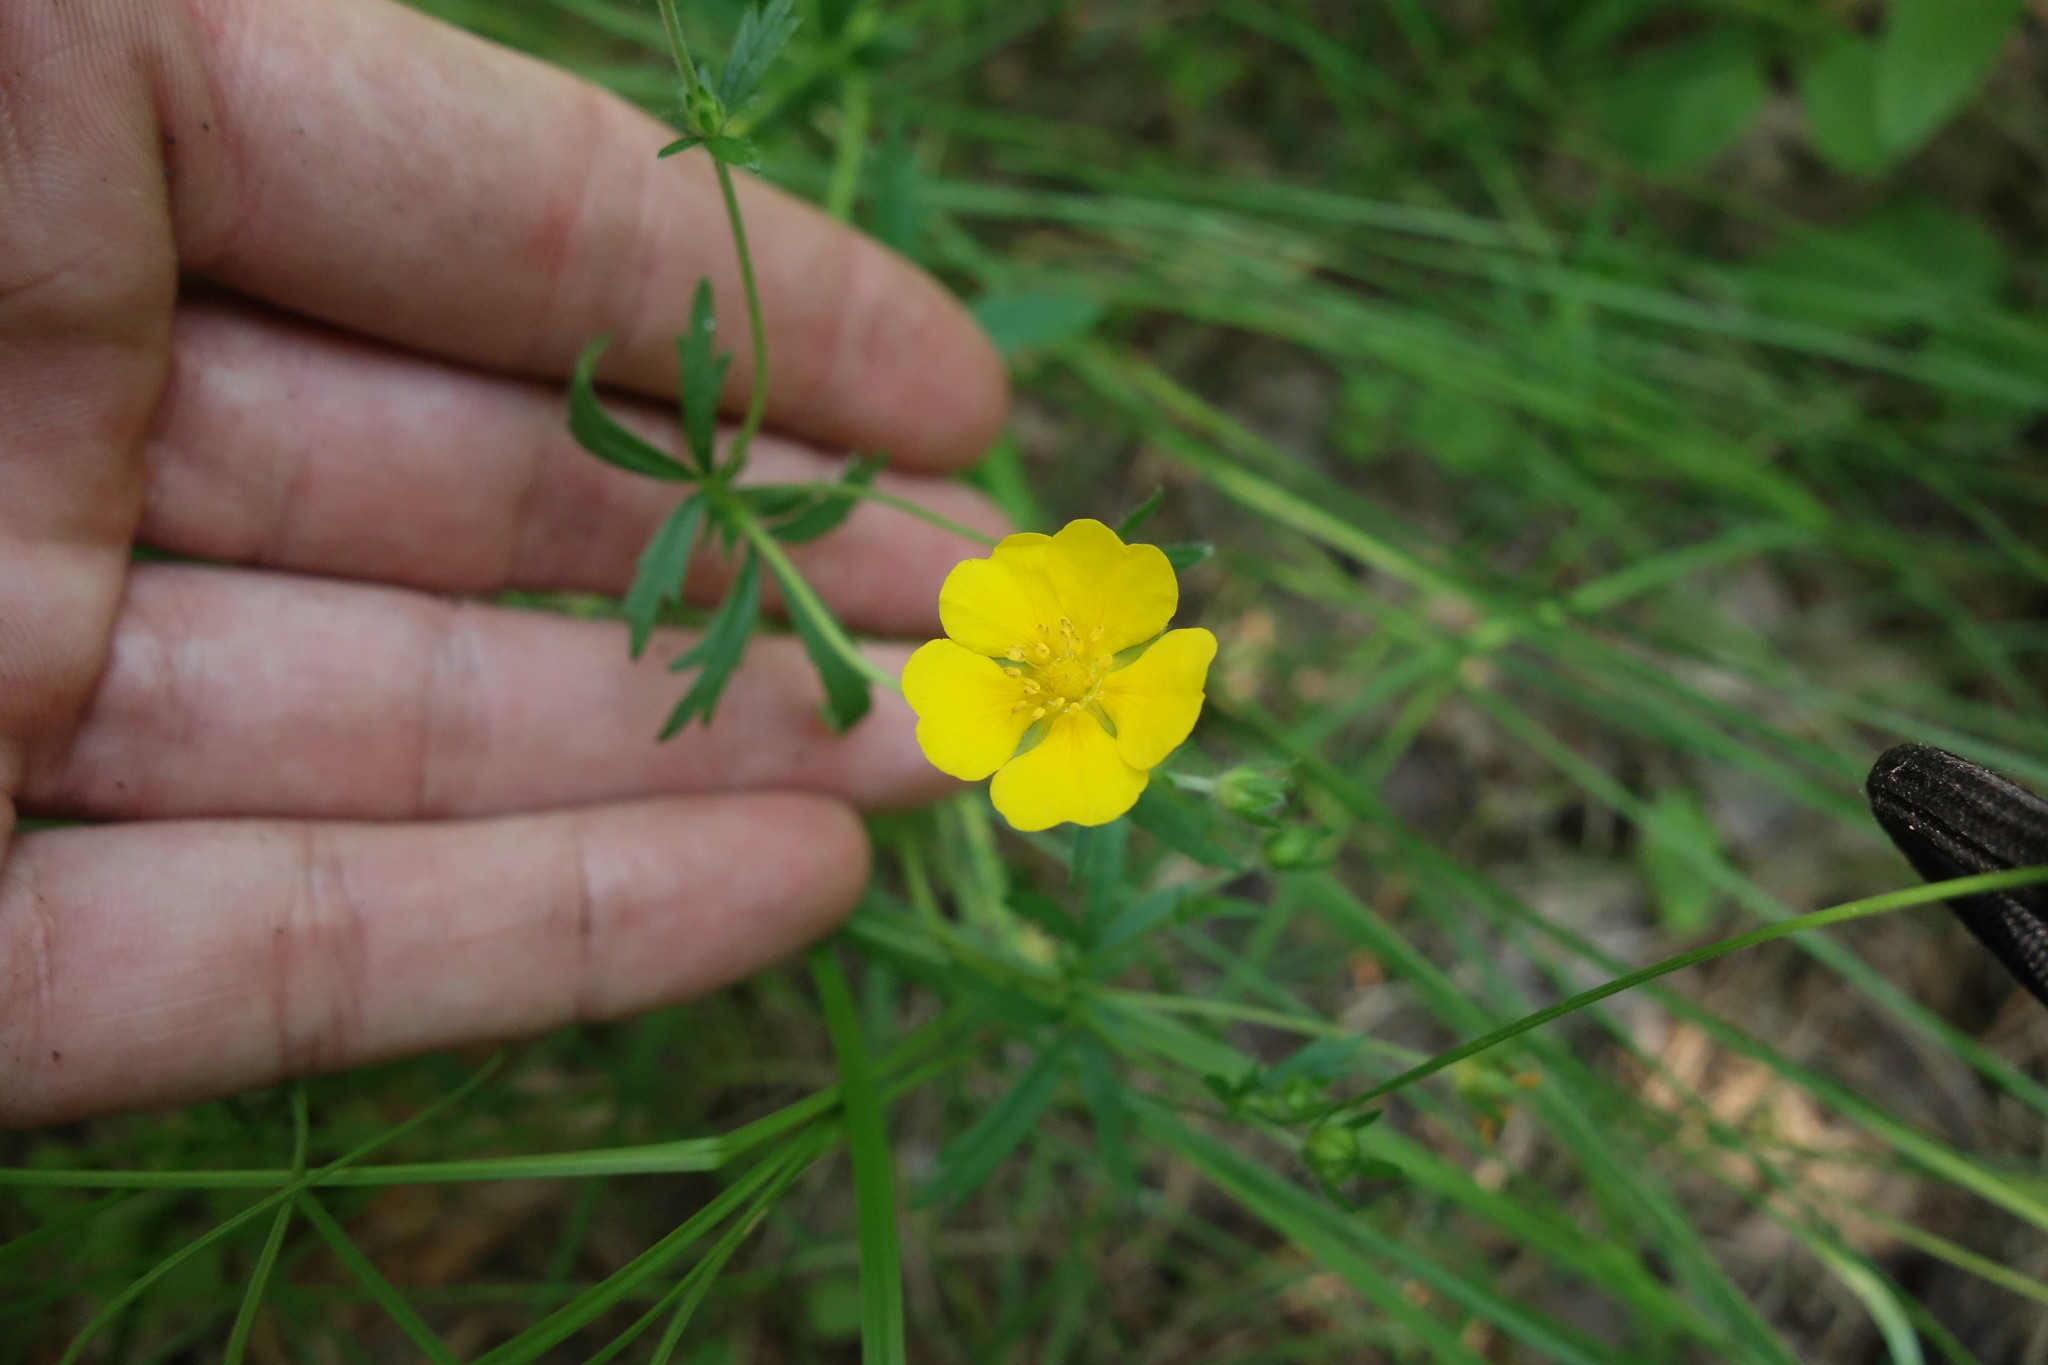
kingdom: Plantae
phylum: Tracheophyta
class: Magnoliopsida
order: Rosales
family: Rosaceae
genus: Potentilla
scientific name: Potentilla thuringiaca
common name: European cinquefoil
